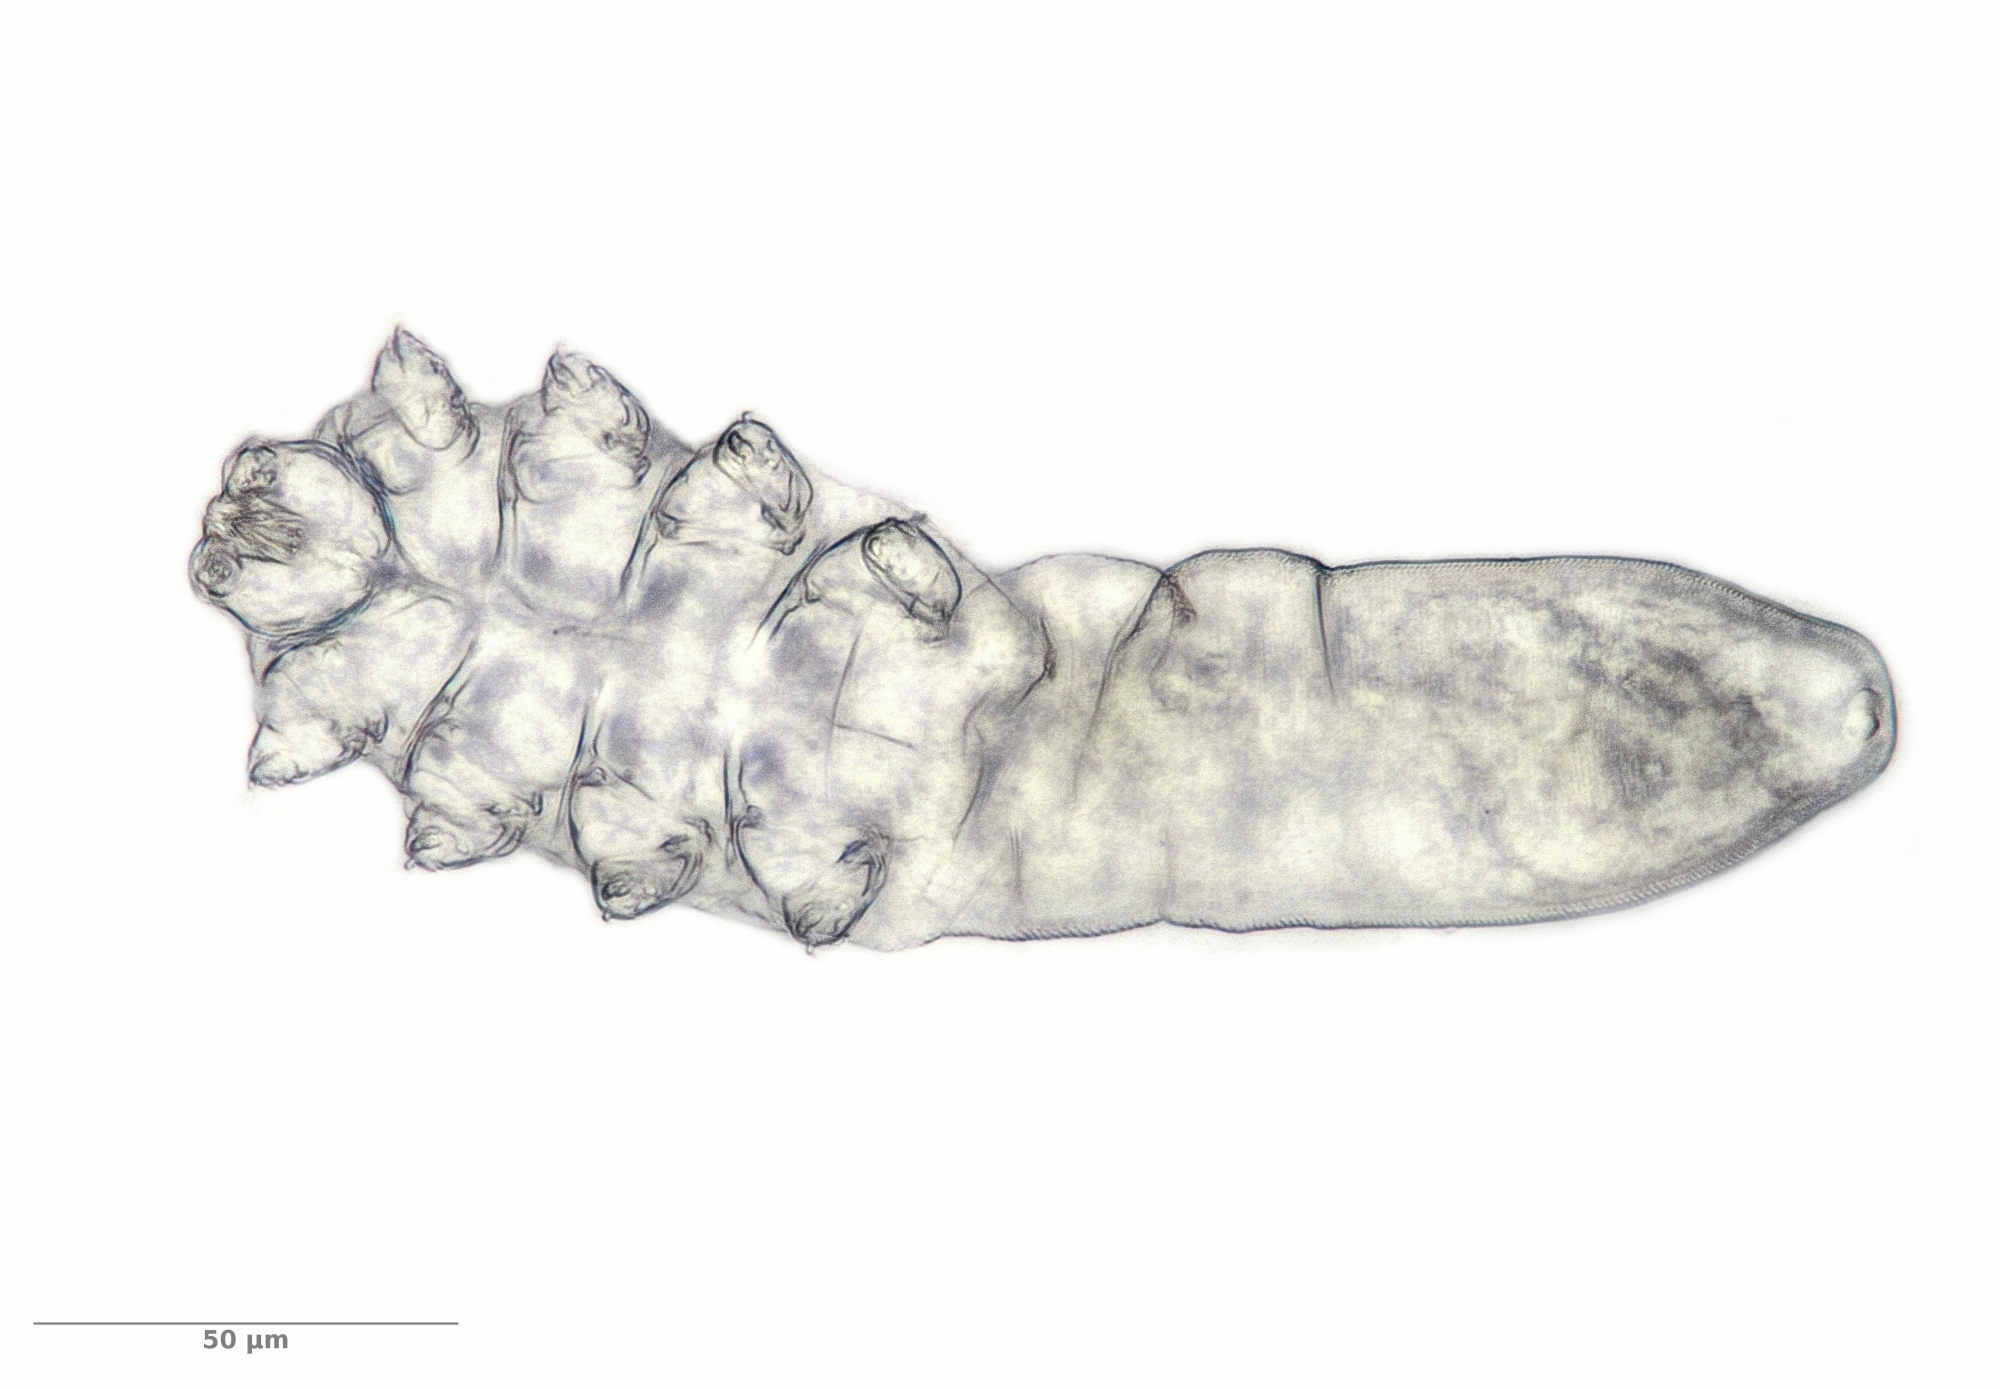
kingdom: Animalia
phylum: Arthropoda
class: Arachnida
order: Trombidiformes
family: Demodecidae
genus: Demodex
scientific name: Demodex brevis
